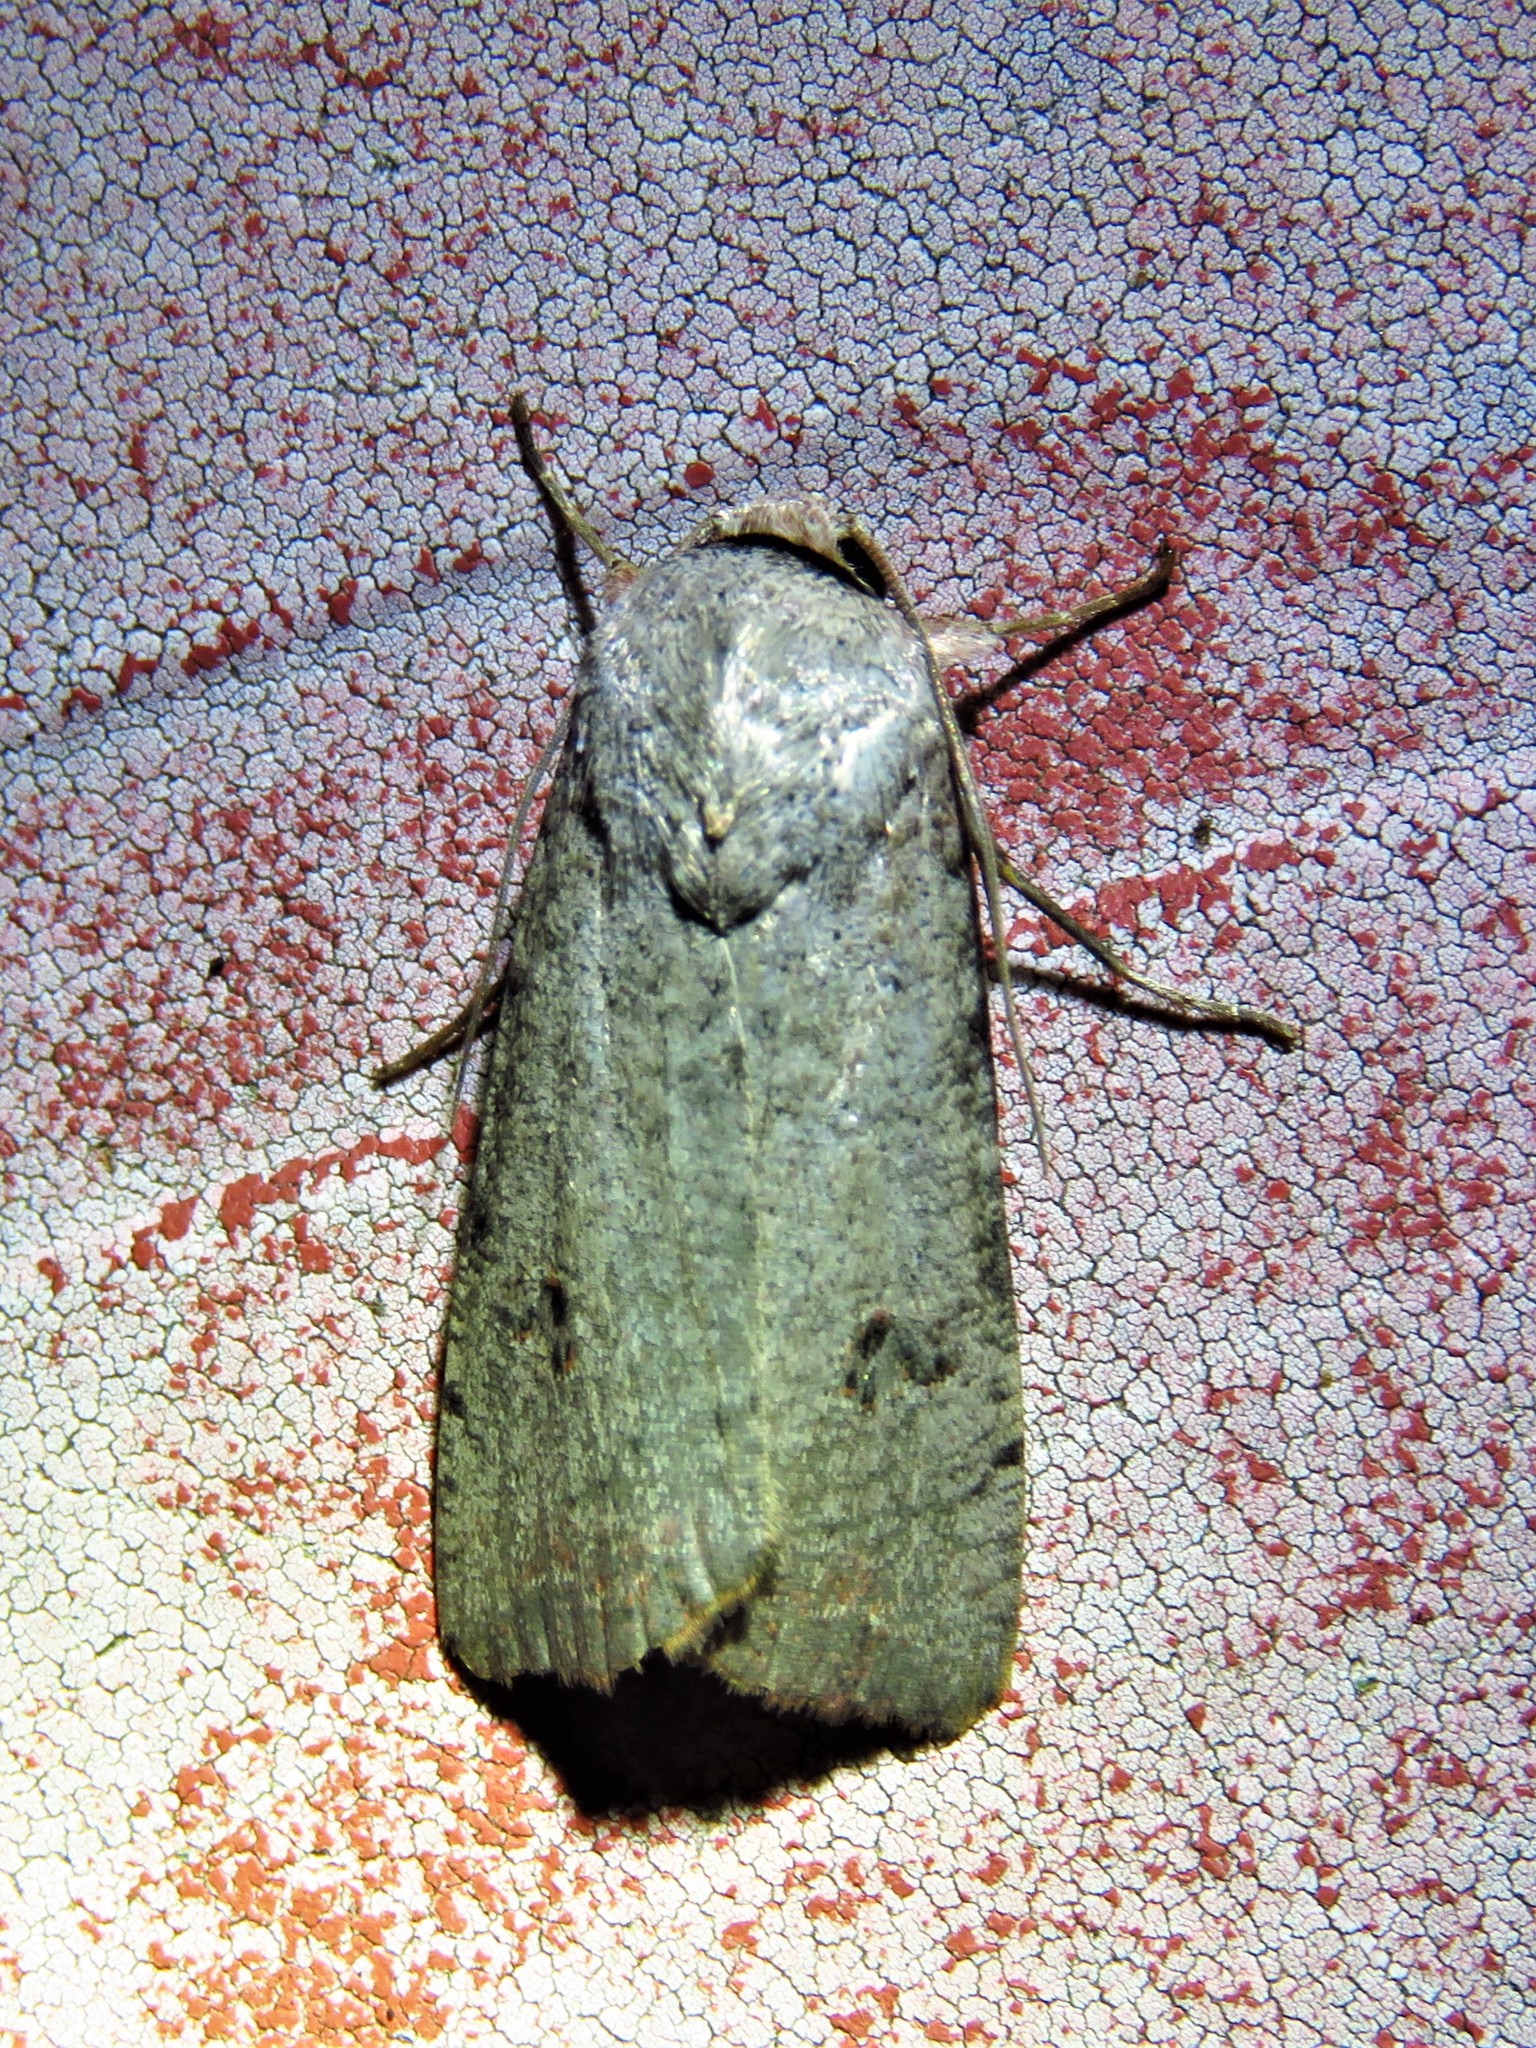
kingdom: Animalia
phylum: Arthropoda
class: Insecta
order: Lepidoptera
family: Noctuidae
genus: Anicla
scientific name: Anicla infecta
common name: Green cutworm
